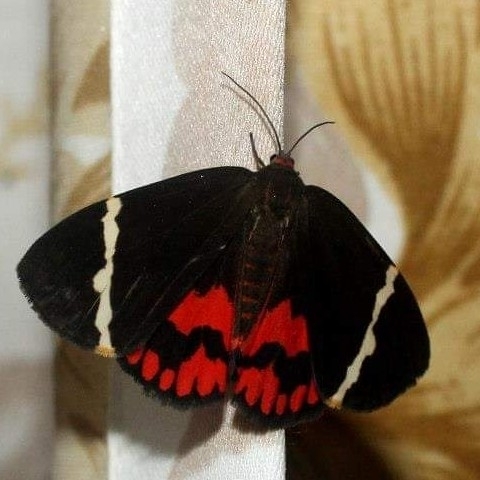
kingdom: Animalia
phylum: Arthropoda
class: Insecta
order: Lepidoptera
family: Erebidae
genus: Curoba
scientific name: Curoba sangarida
